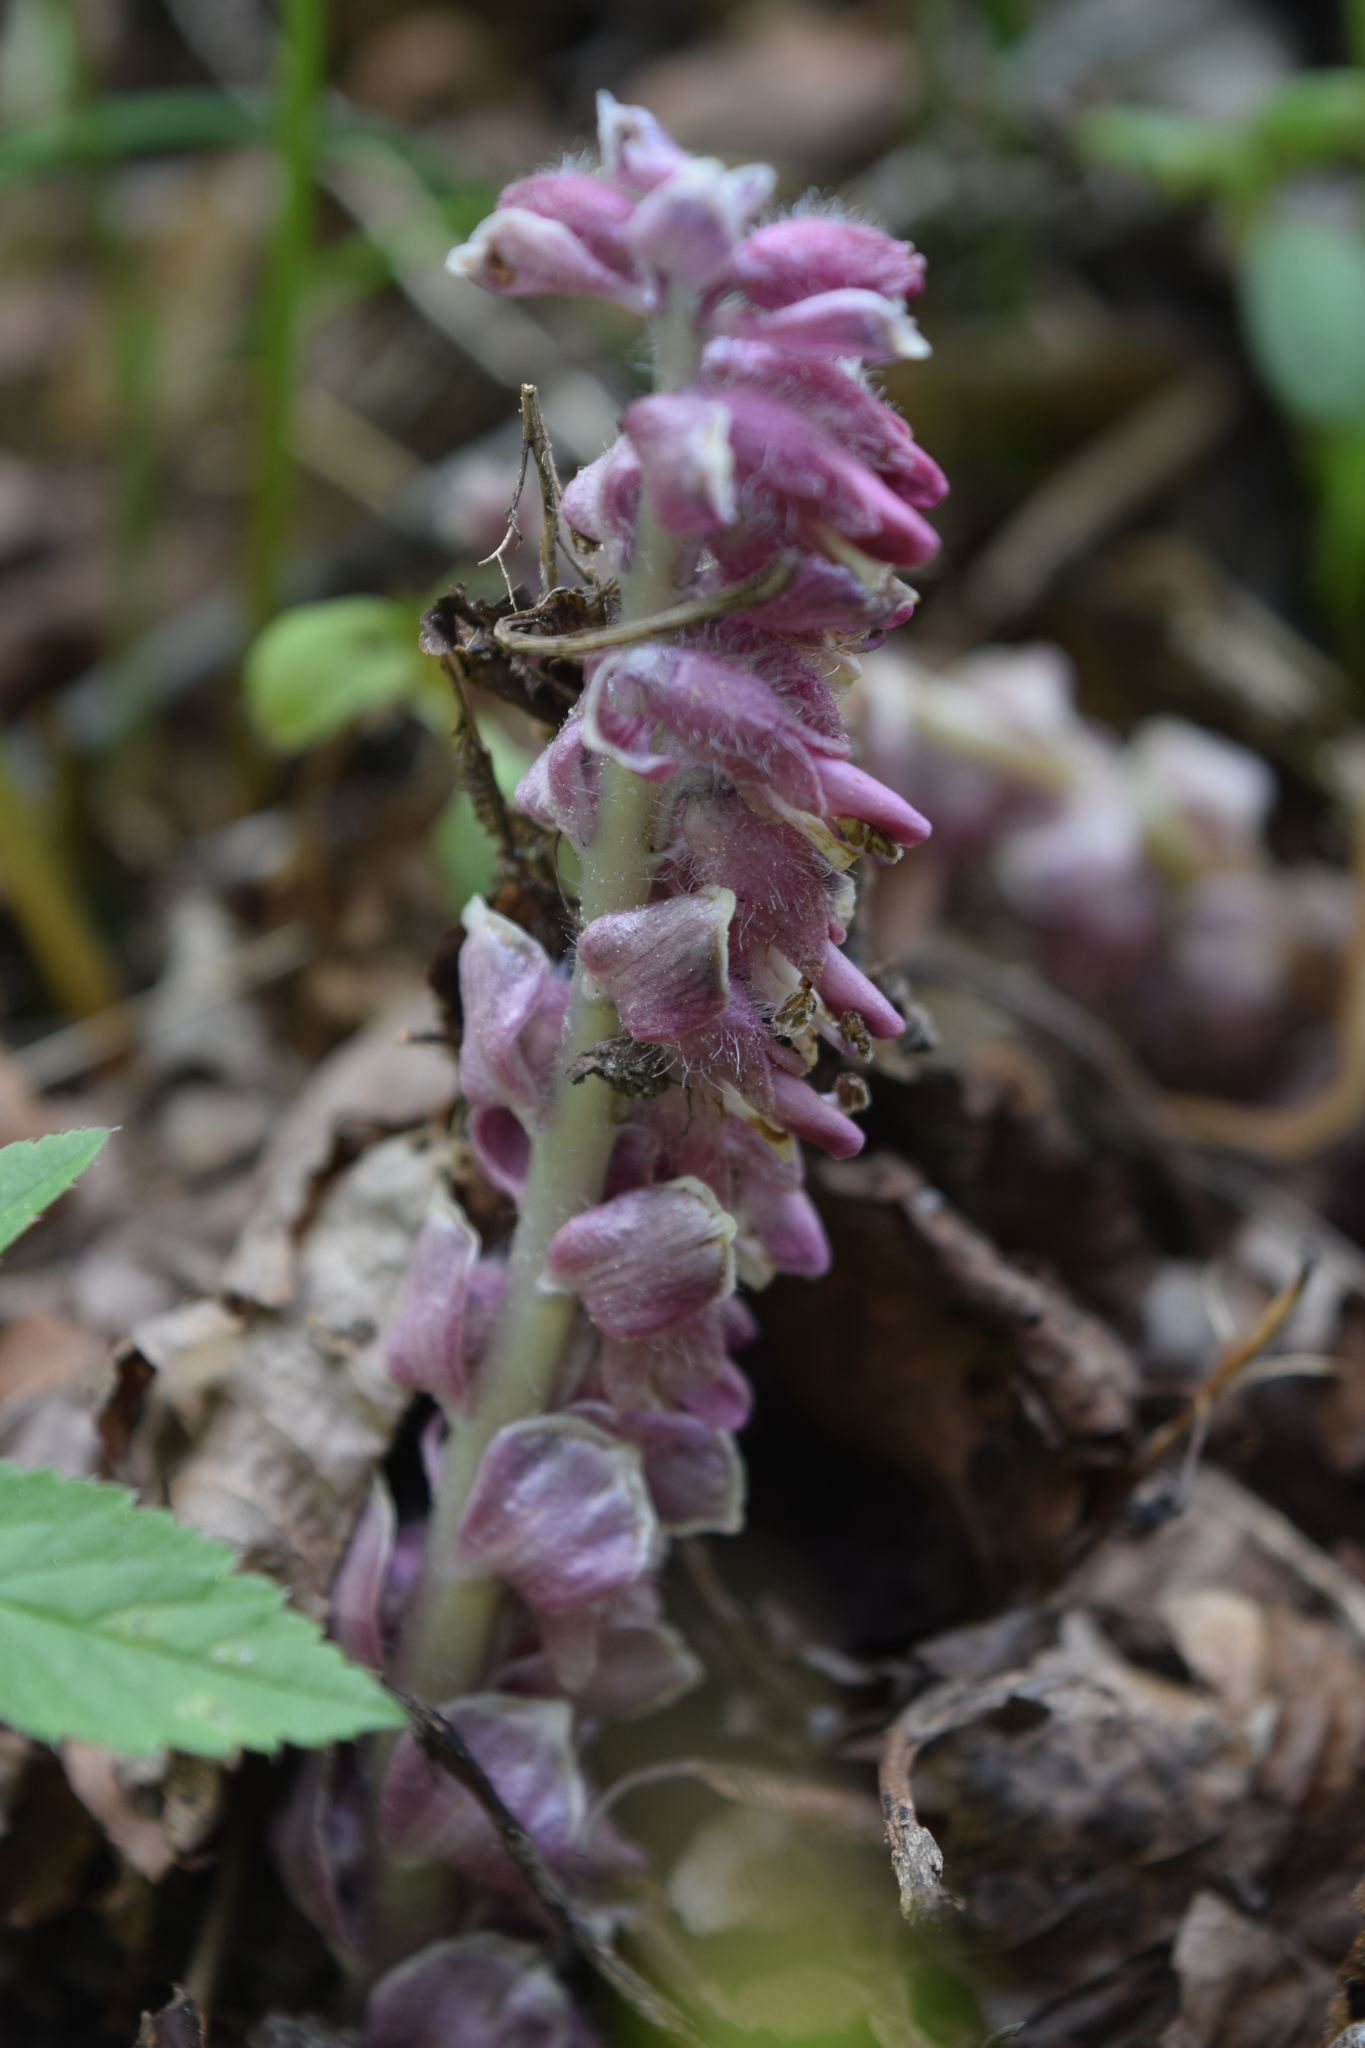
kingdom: Plantae
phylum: Tracheophyta
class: Magnoliopsida
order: Lamiales
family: Orobanchaceae
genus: Lathraea
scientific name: Lathraea squamaria
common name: Toothwort
